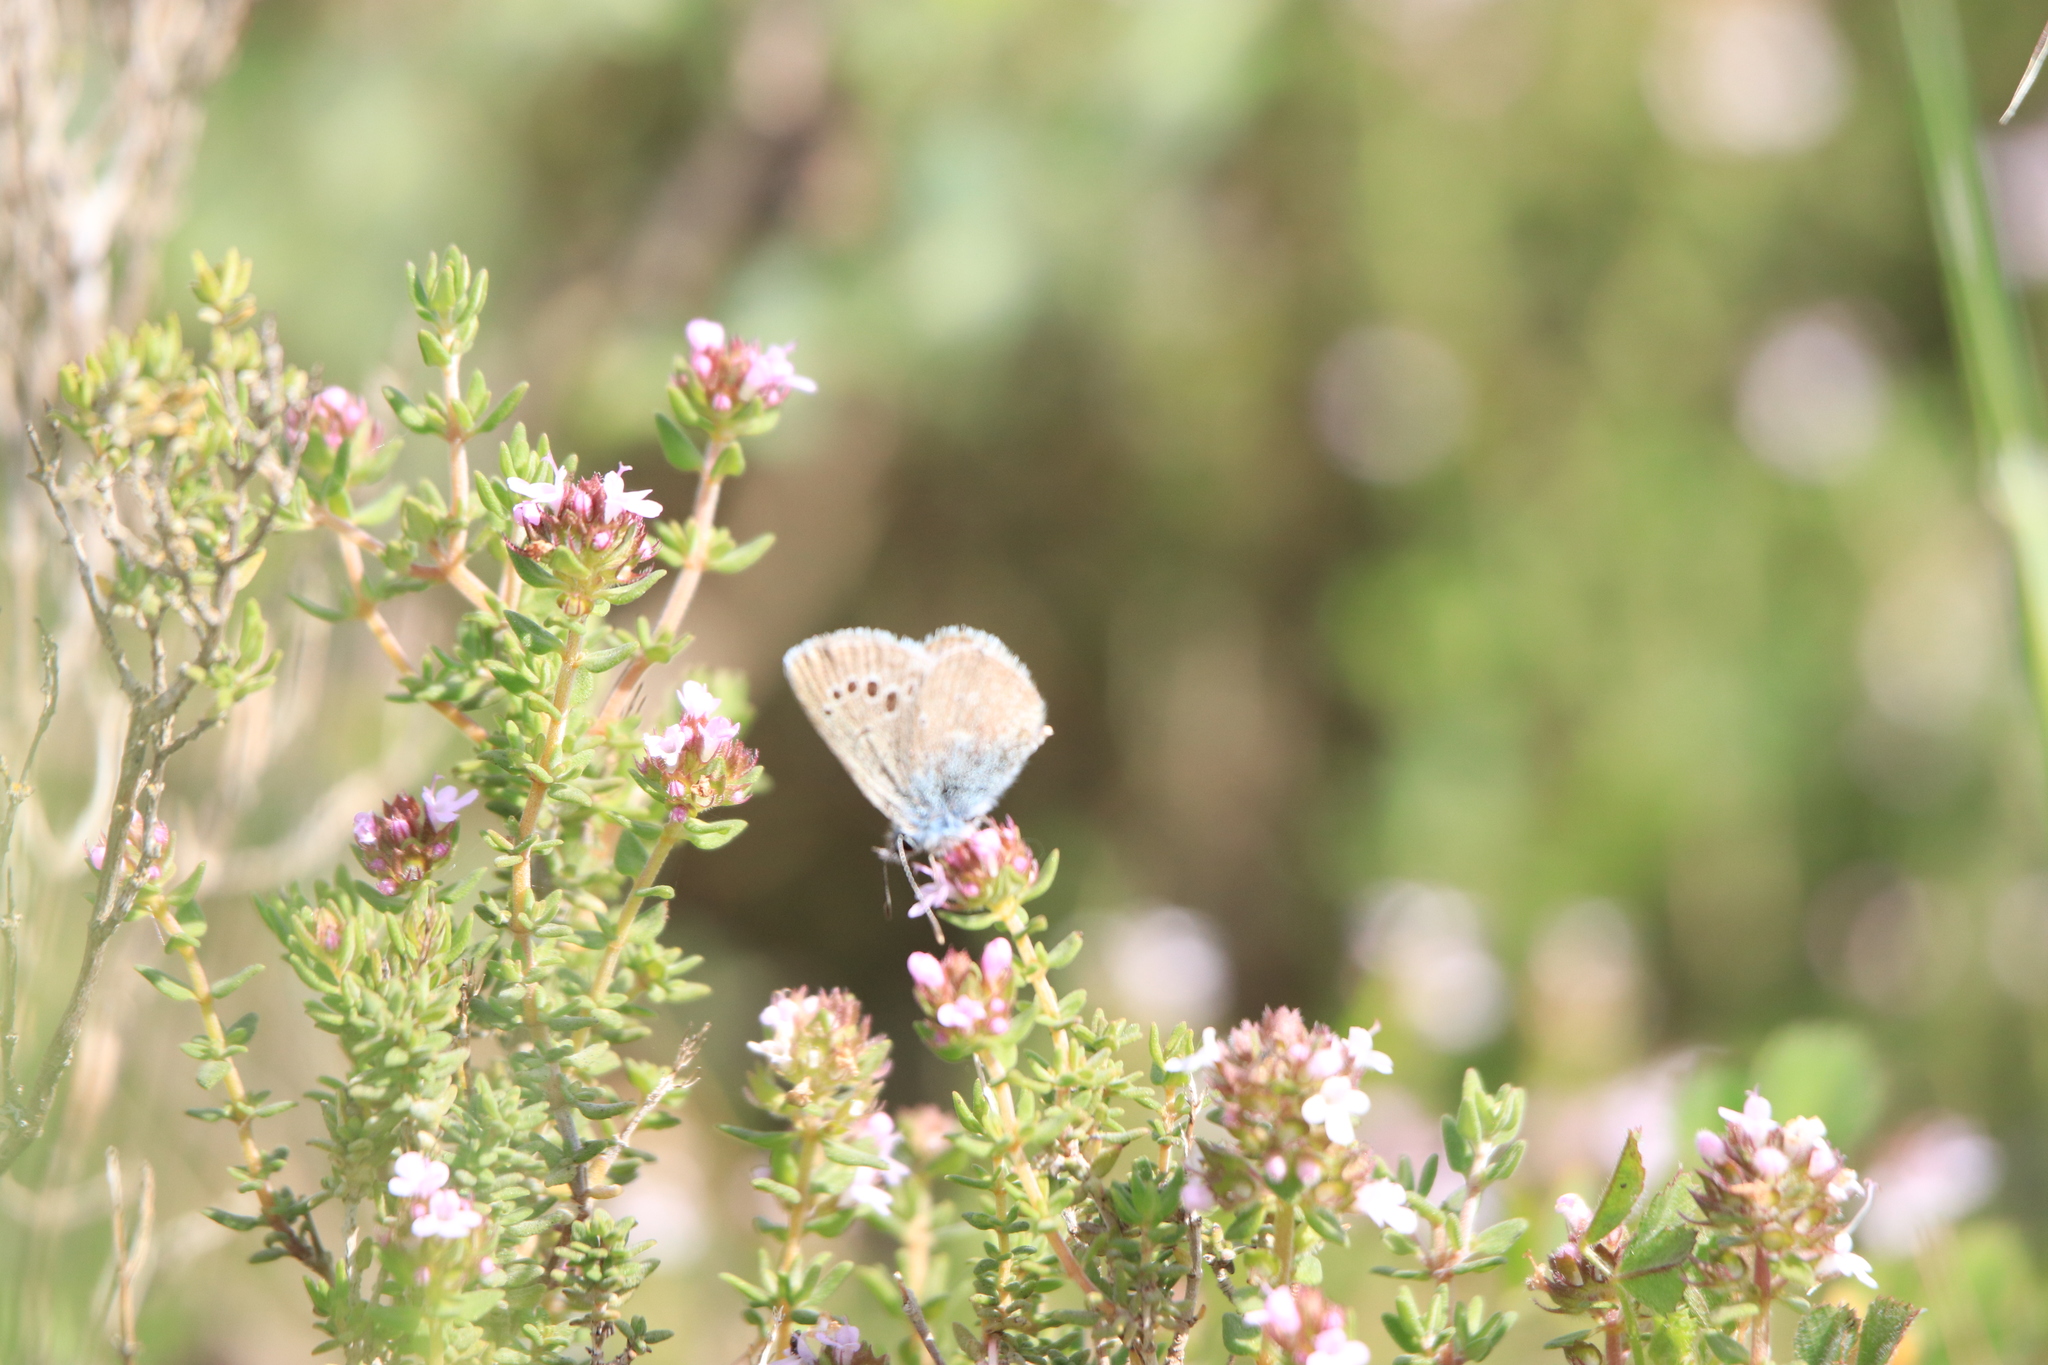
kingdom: Animalia
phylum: Arthropoda
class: Insecta
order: Lepidoptera
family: Lycaenidae
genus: Glaucopsyche
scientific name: Glaucopsyche melanops
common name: Black-eyed blue
